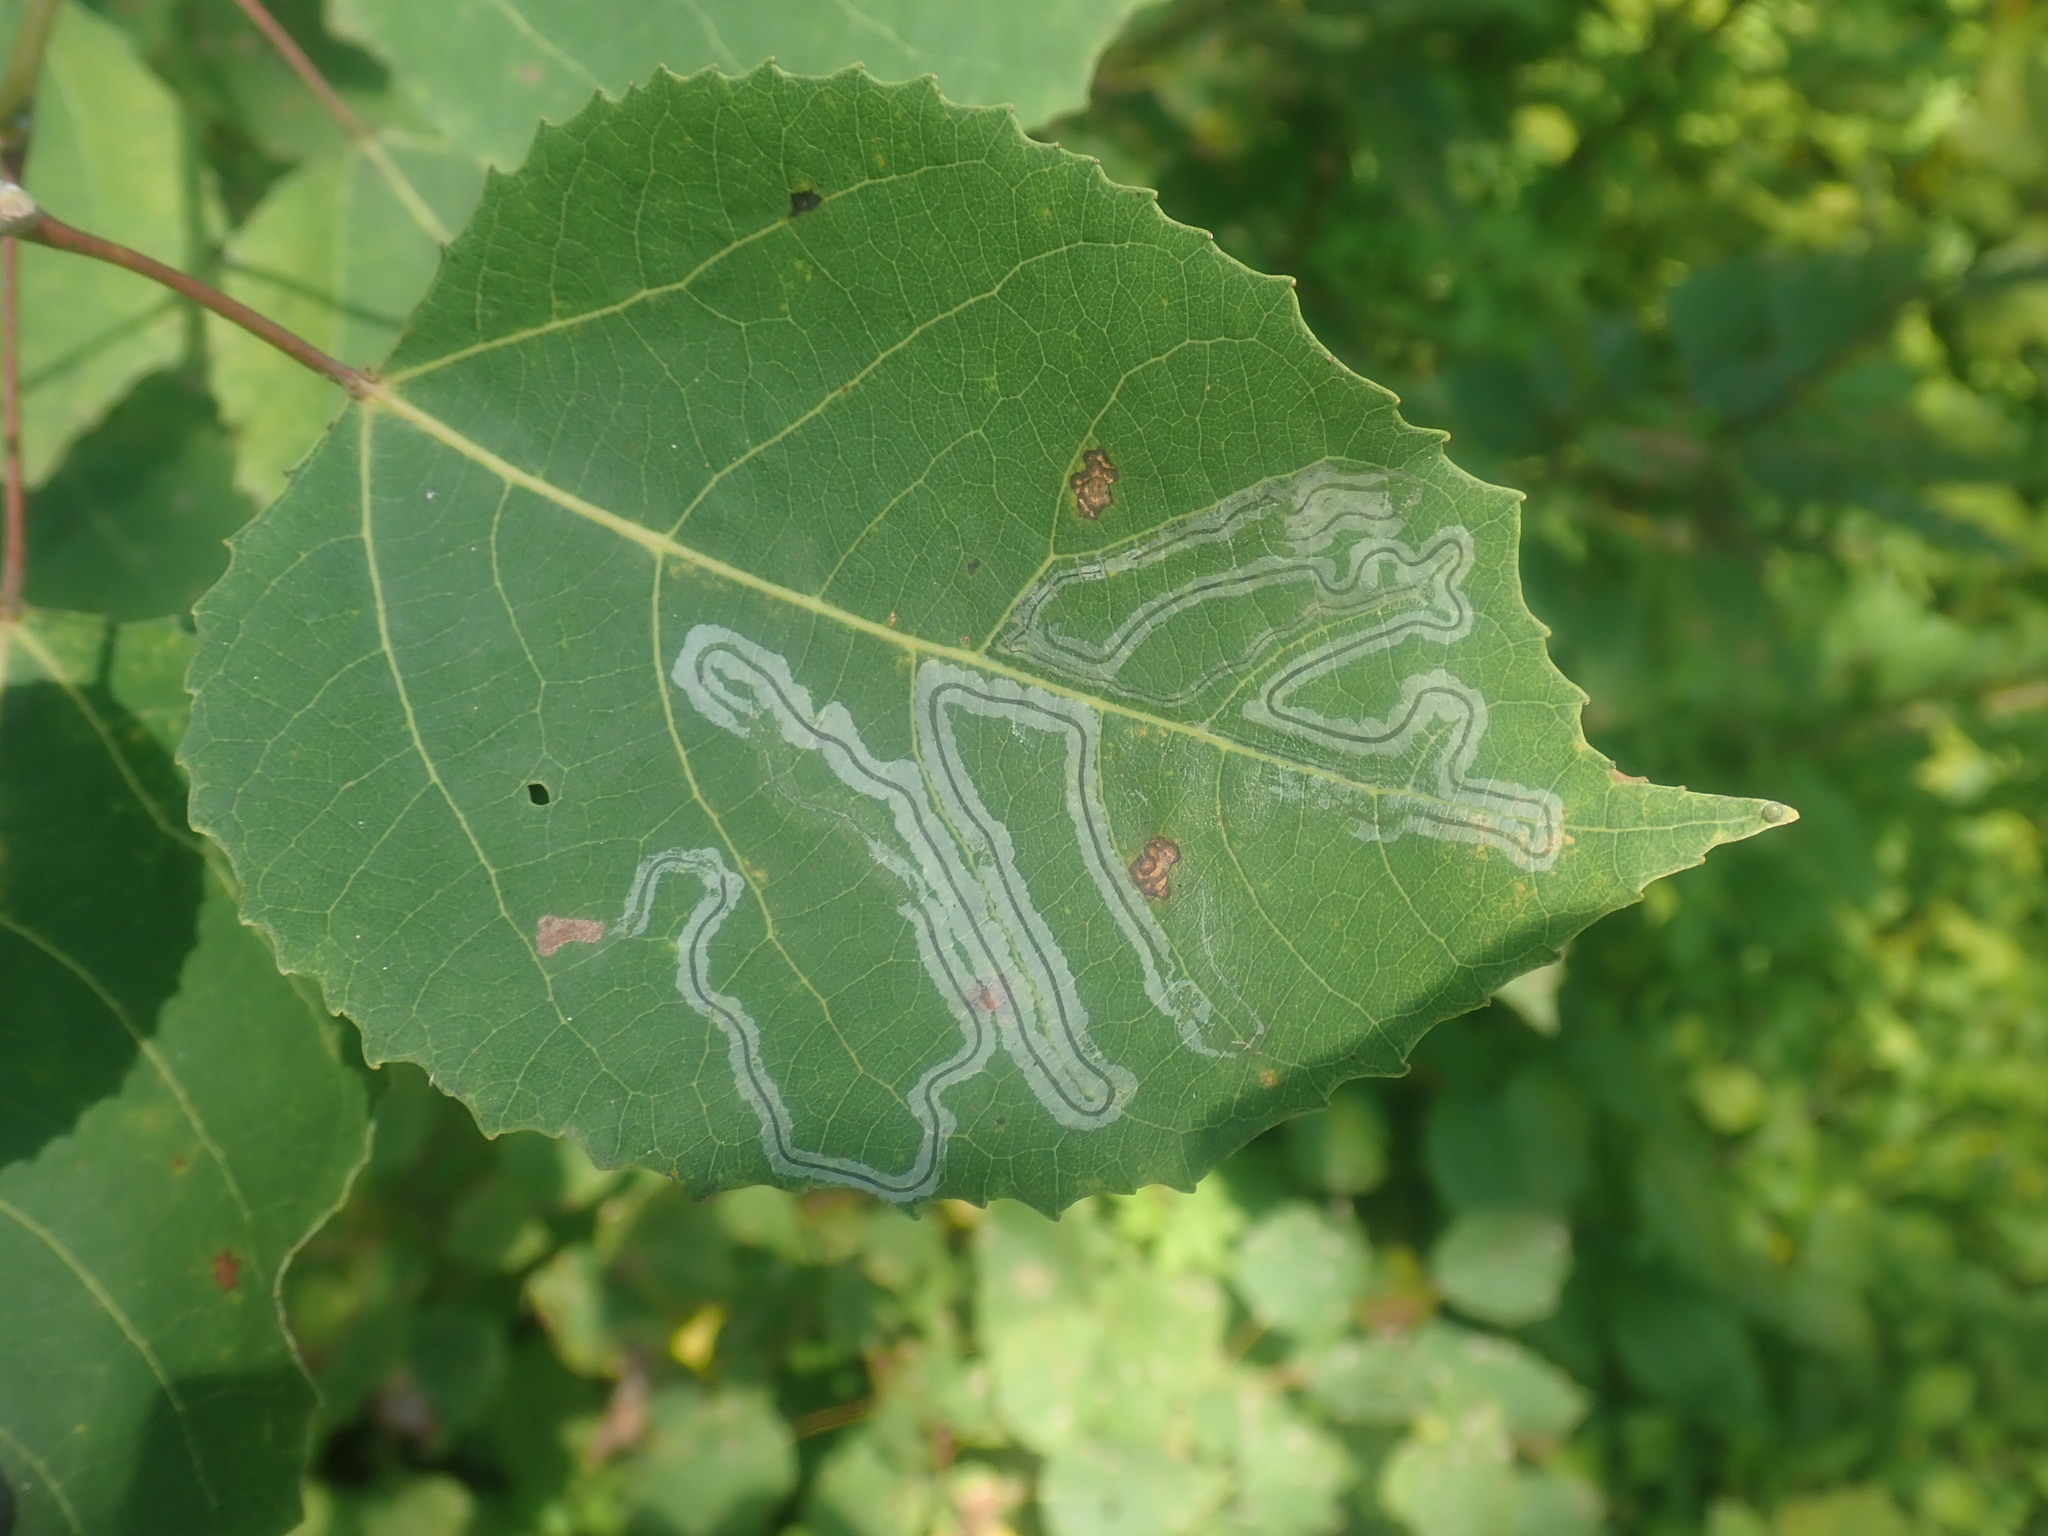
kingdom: Animalia
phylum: Arthropoda
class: Insecta
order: Lepidoptera
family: Gracillariidae
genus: Phyllocnistis
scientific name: Phyllocnistis populiella
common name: Aspen serpentine leafminer moth
